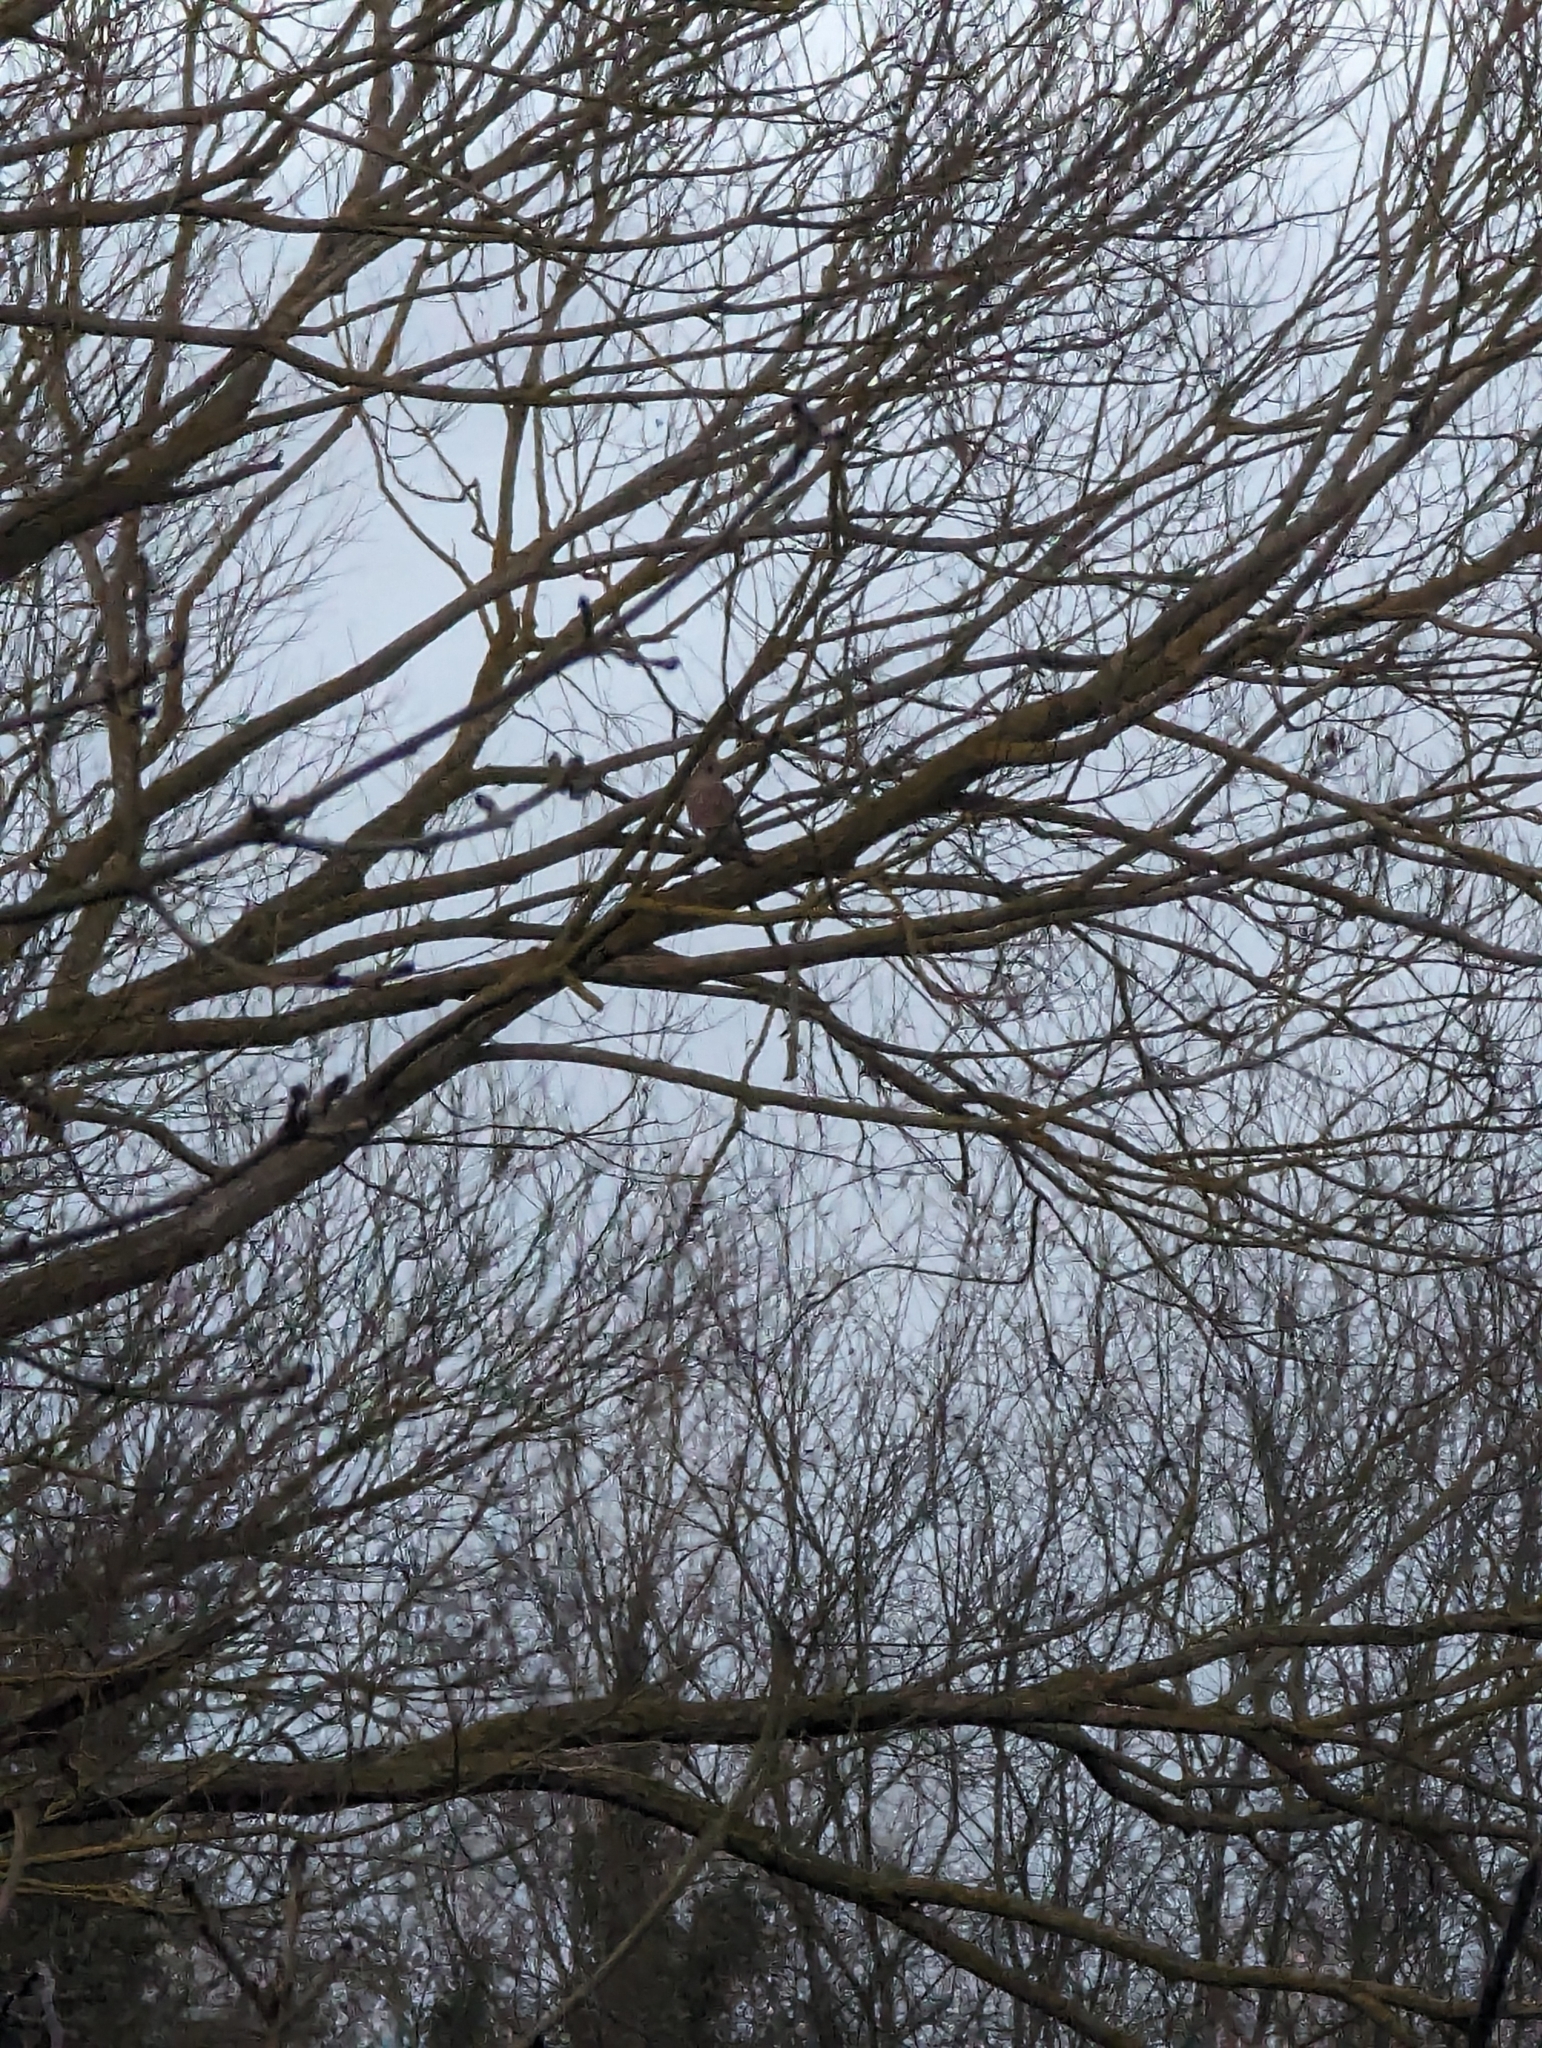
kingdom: Animalia
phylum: Chordata
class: Aves
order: Falconiformes
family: Falconidae
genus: Falco
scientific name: Falco tinnunculus
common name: Common kestrel
